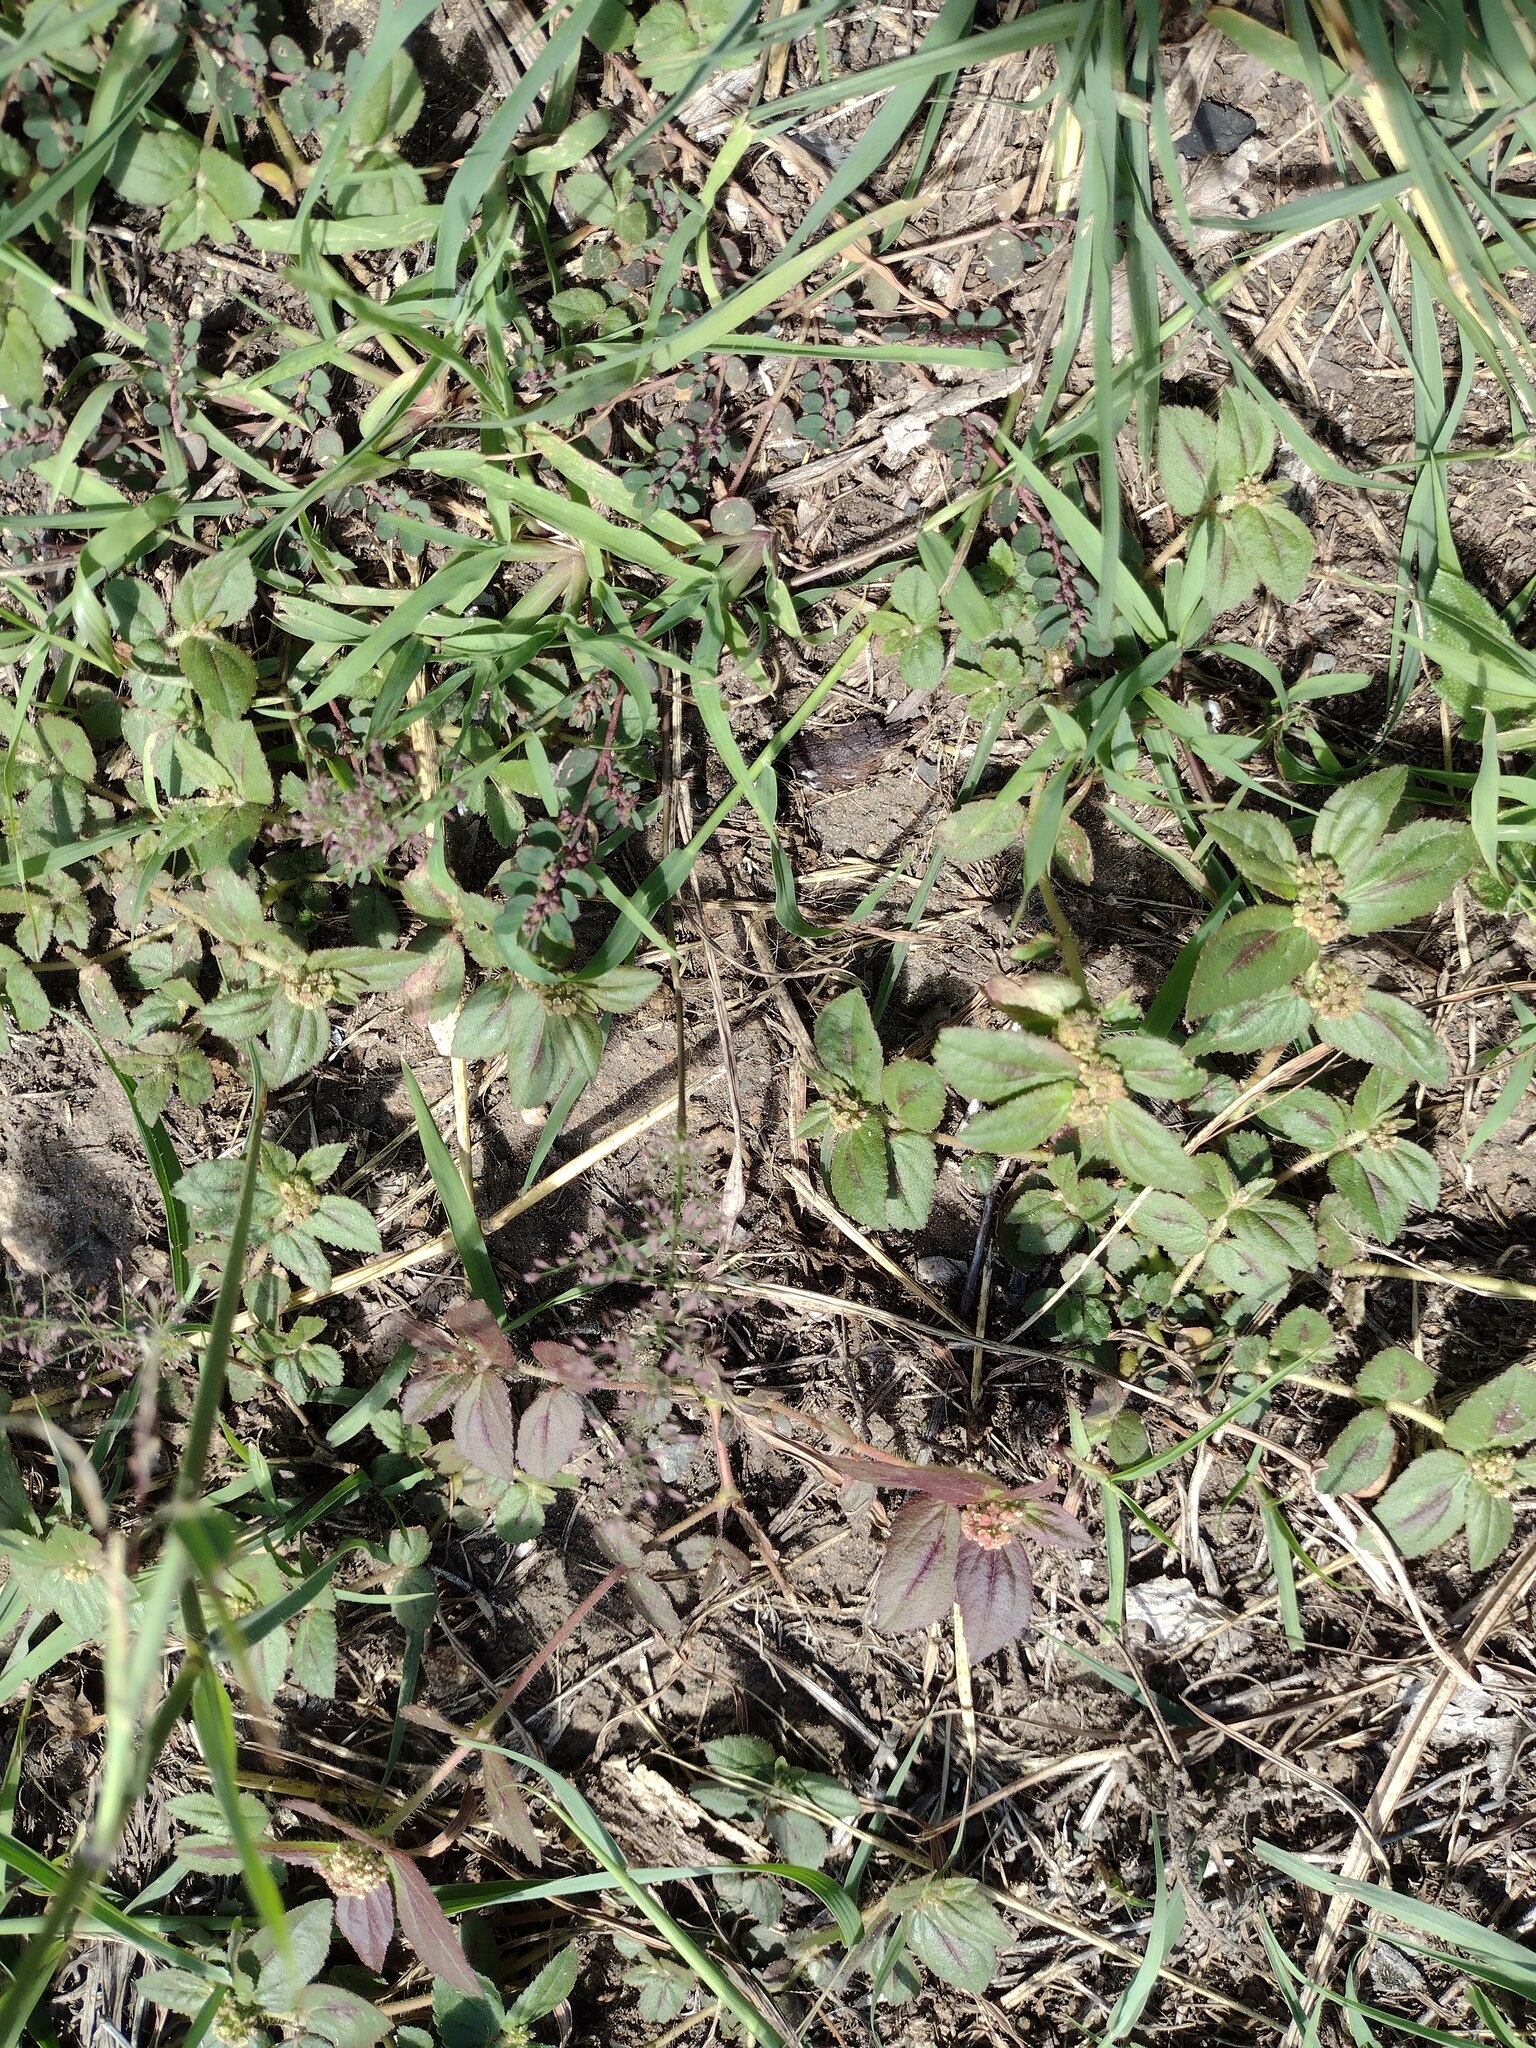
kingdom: Plantae
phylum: Tracheophyta
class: Magnoliopsida
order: Malpighiales
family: Euphorbiaceae
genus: Euphorbia
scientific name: Euphorbia hirta
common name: Pillpod sandmat
